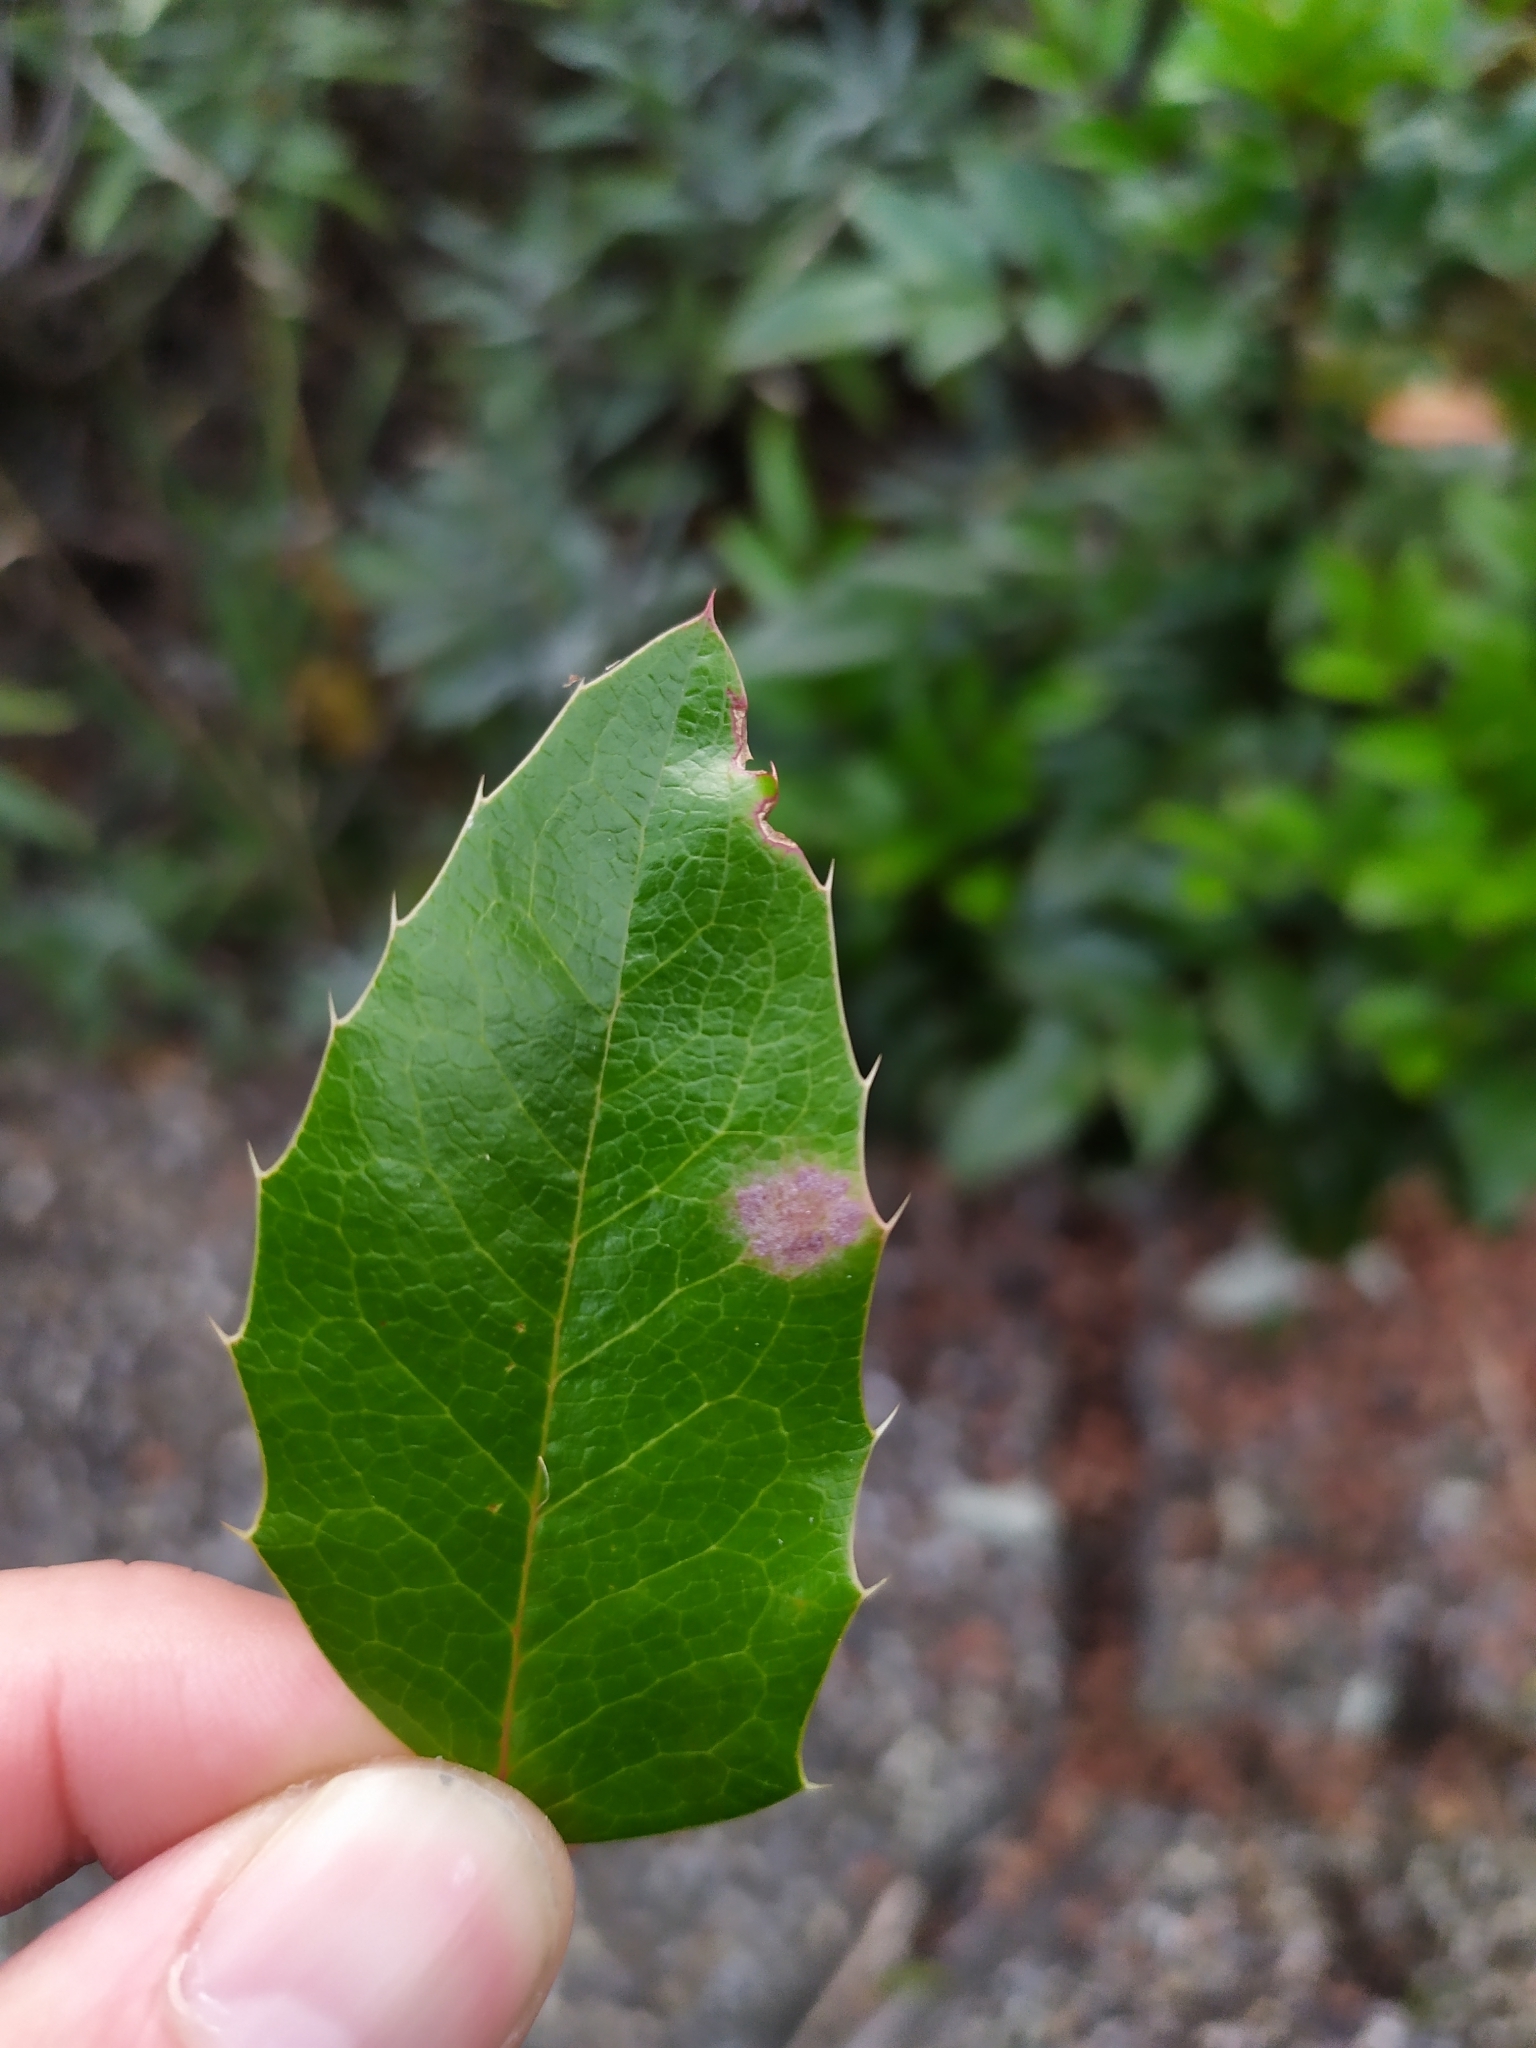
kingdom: Fungi
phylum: Ascomycota
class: Leotiomycetes
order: Helotiales
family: Erysiphaceae
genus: Erysiphe
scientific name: Erysiphe berberidis
